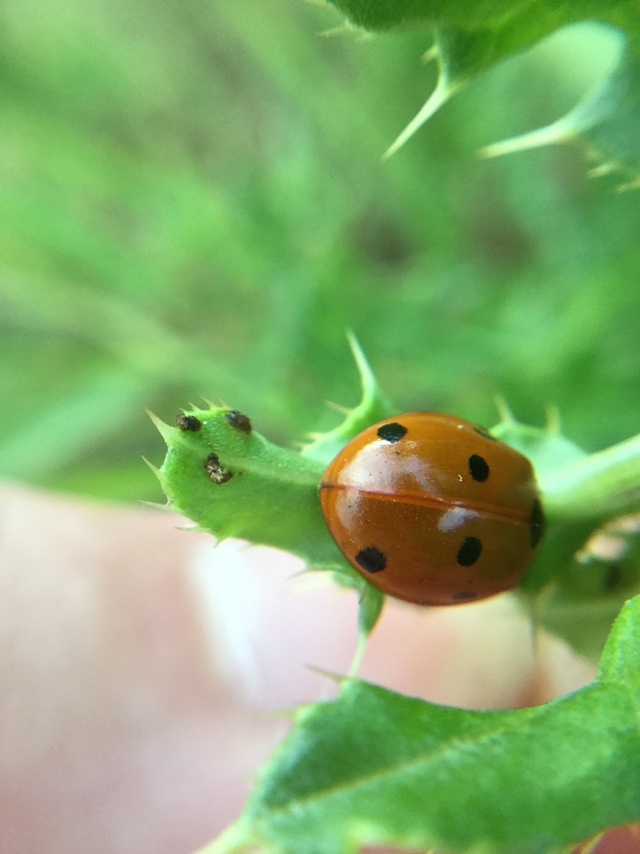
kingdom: Animalia
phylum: Arthropoda
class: Insecta
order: Coleoptera
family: Coccinellidae
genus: Coccinella
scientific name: Coccinella septempunctata
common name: Sevenspotted lady beetle
